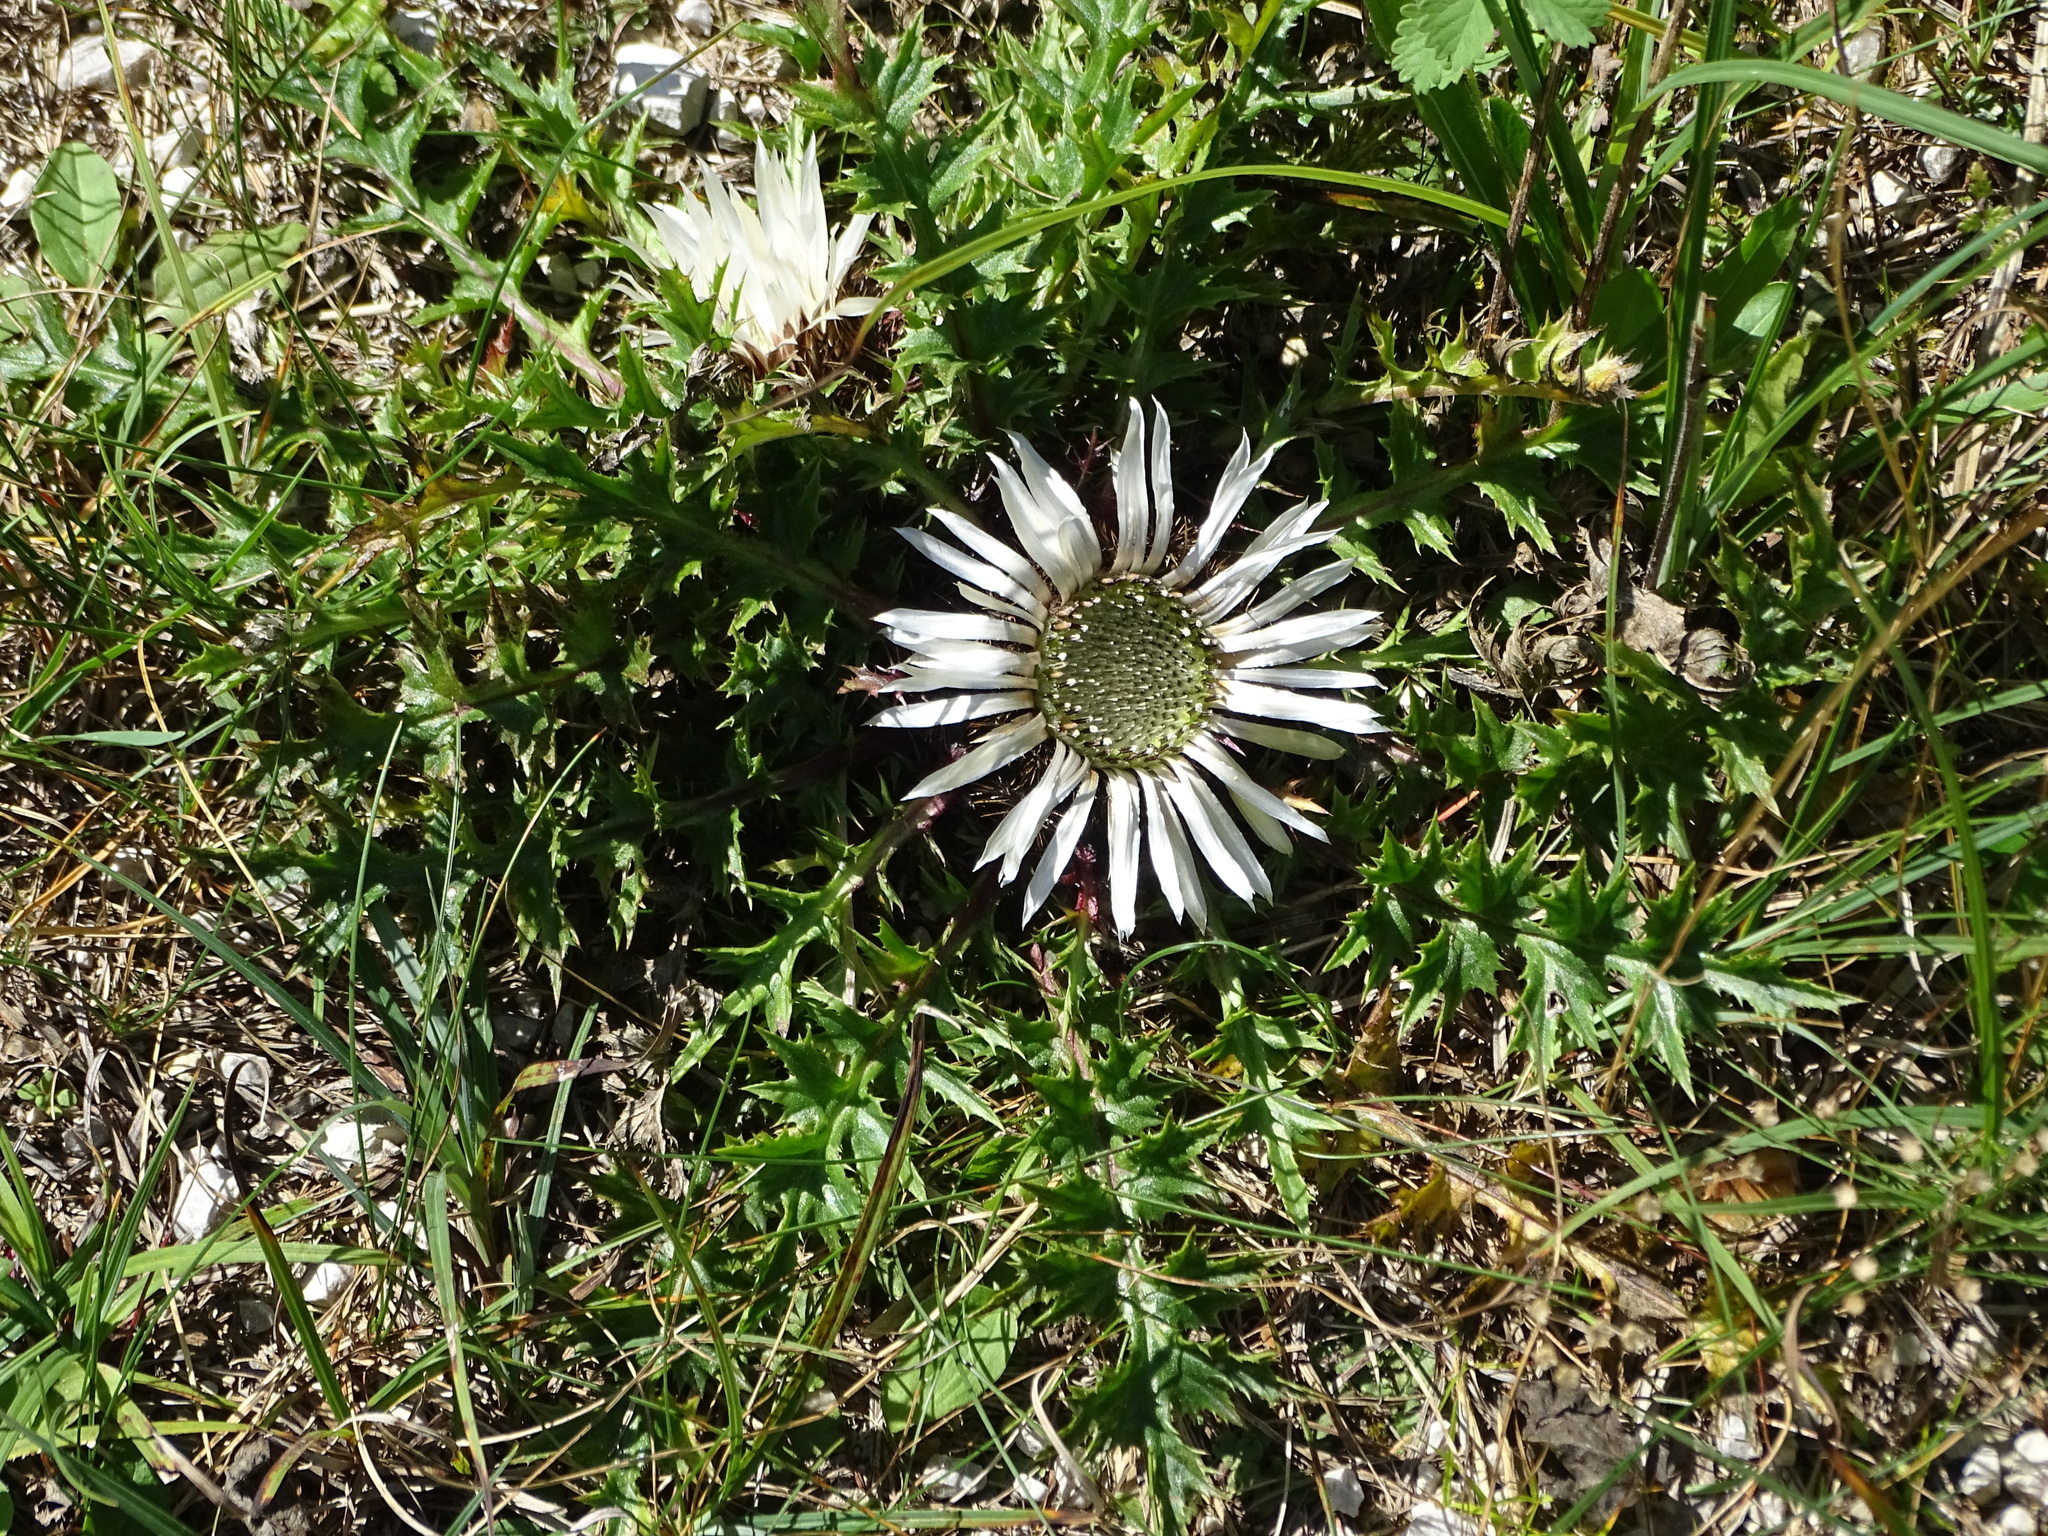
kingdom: Plantae
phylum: Tracheophyta
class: Magnoliopsida
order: Asterales
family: Asteraceae
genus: Carlina
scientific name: Carlina acaulis
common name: Stemless carline thistle
